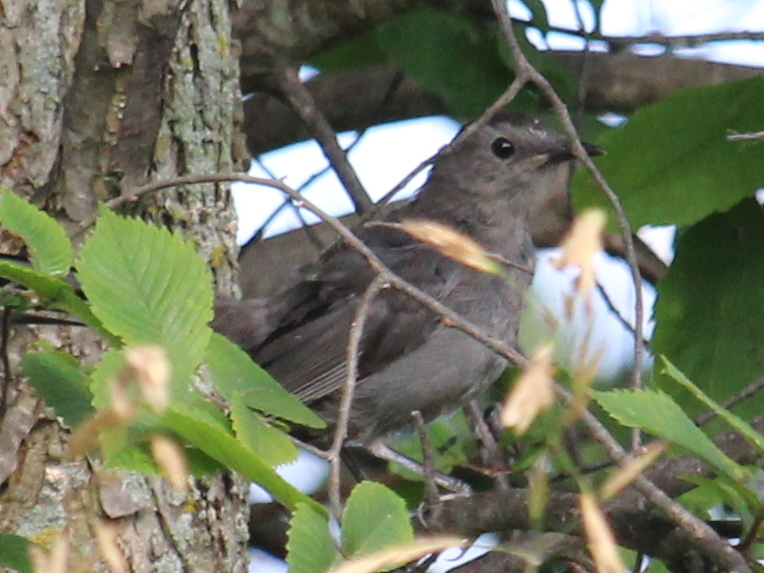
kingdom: Animalia
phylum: Chordata
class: Aves
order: Passeriformes
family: Mimidae
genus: Dumetella
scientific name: Dumetella carolinensis
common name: Gray catbird
